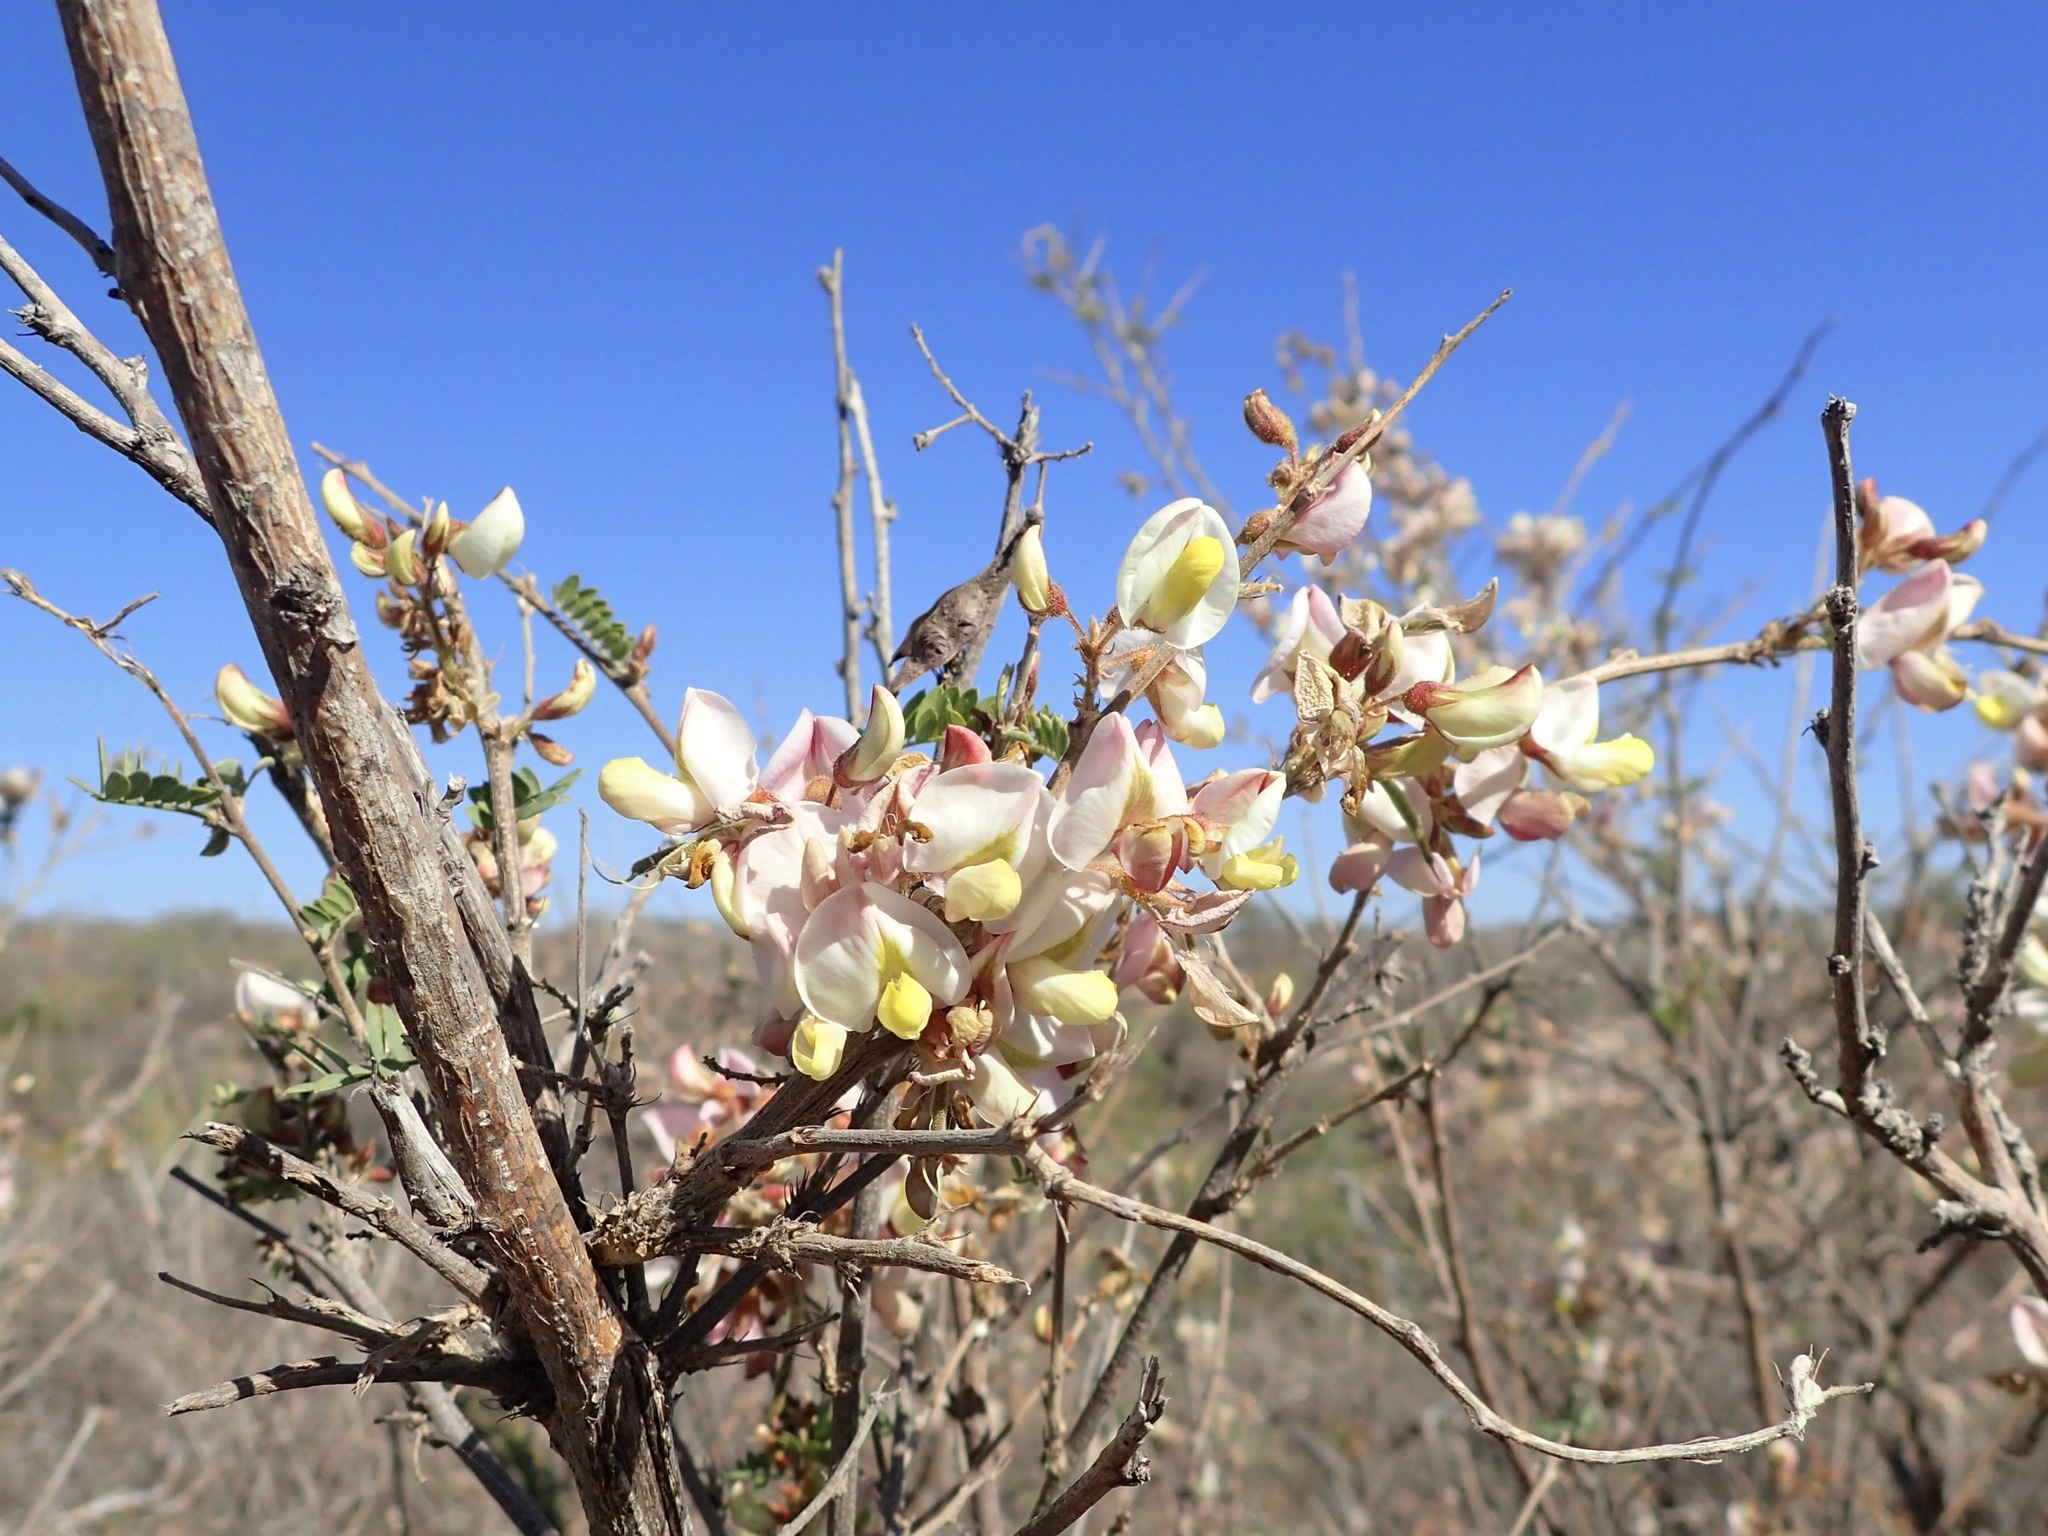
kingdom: Plantae
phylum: Tracheophyta
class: Magnoliopsida
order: Fabales
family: Fabaceae
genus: Coursetia
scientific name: Coursetia glandulosa
